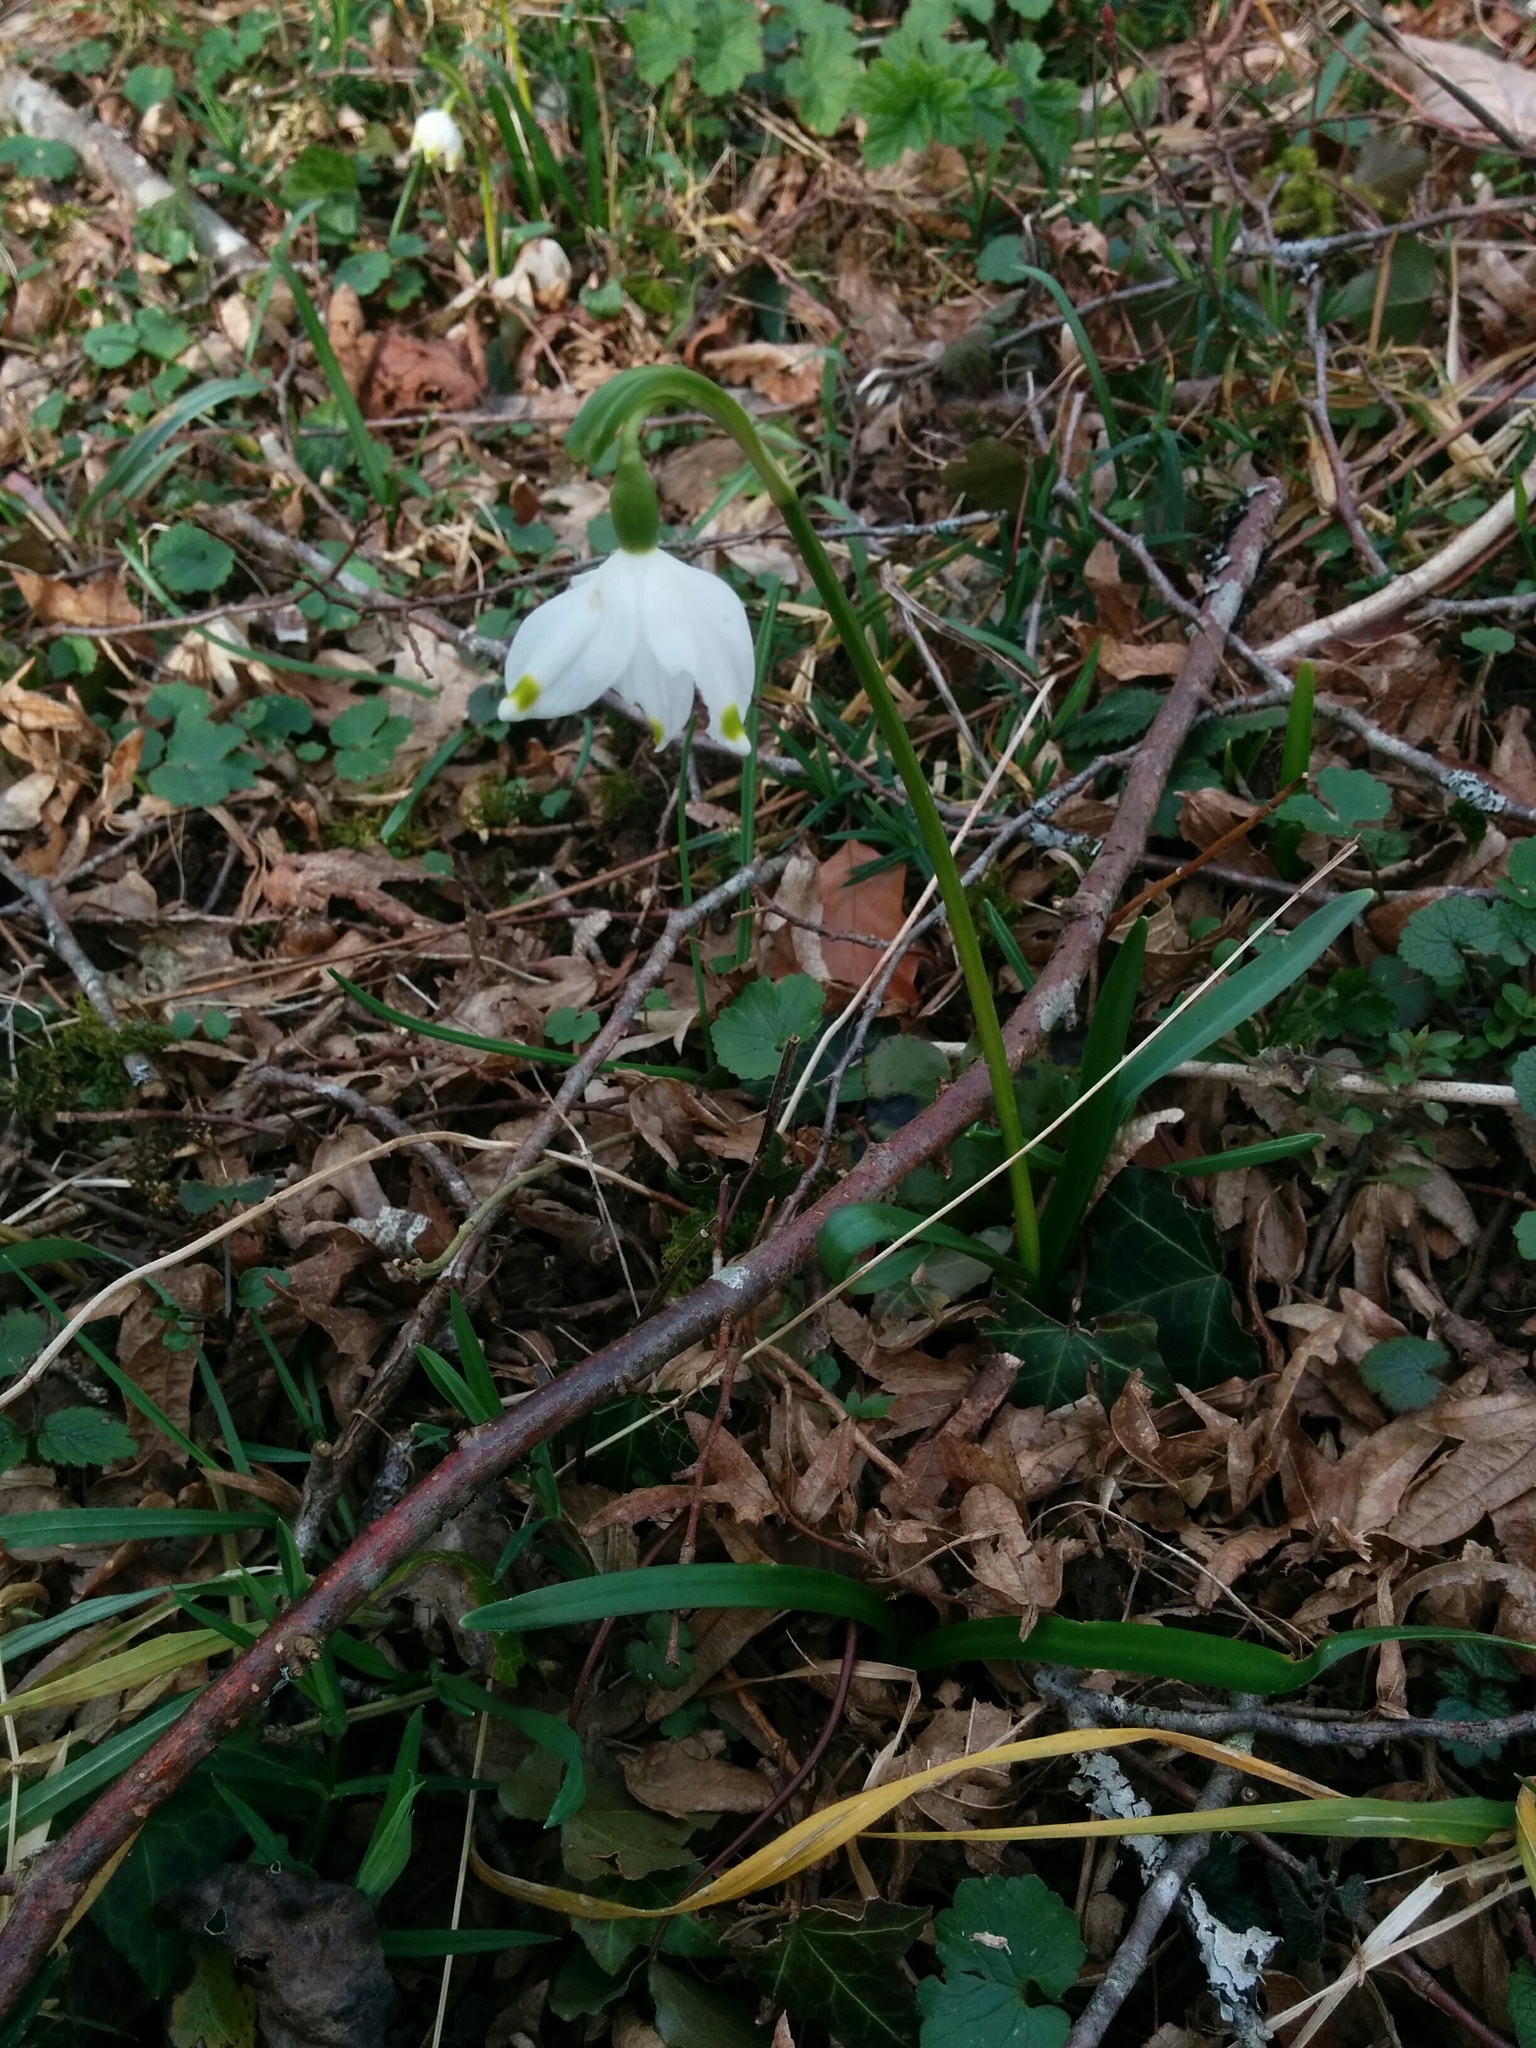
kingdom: Plantae
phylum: Tracheophyta
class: Liliopsida
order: Asparagales
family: Amaryllidaceae
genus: Leucojum
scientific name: Leucojum vernum
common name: Spring snowflake
